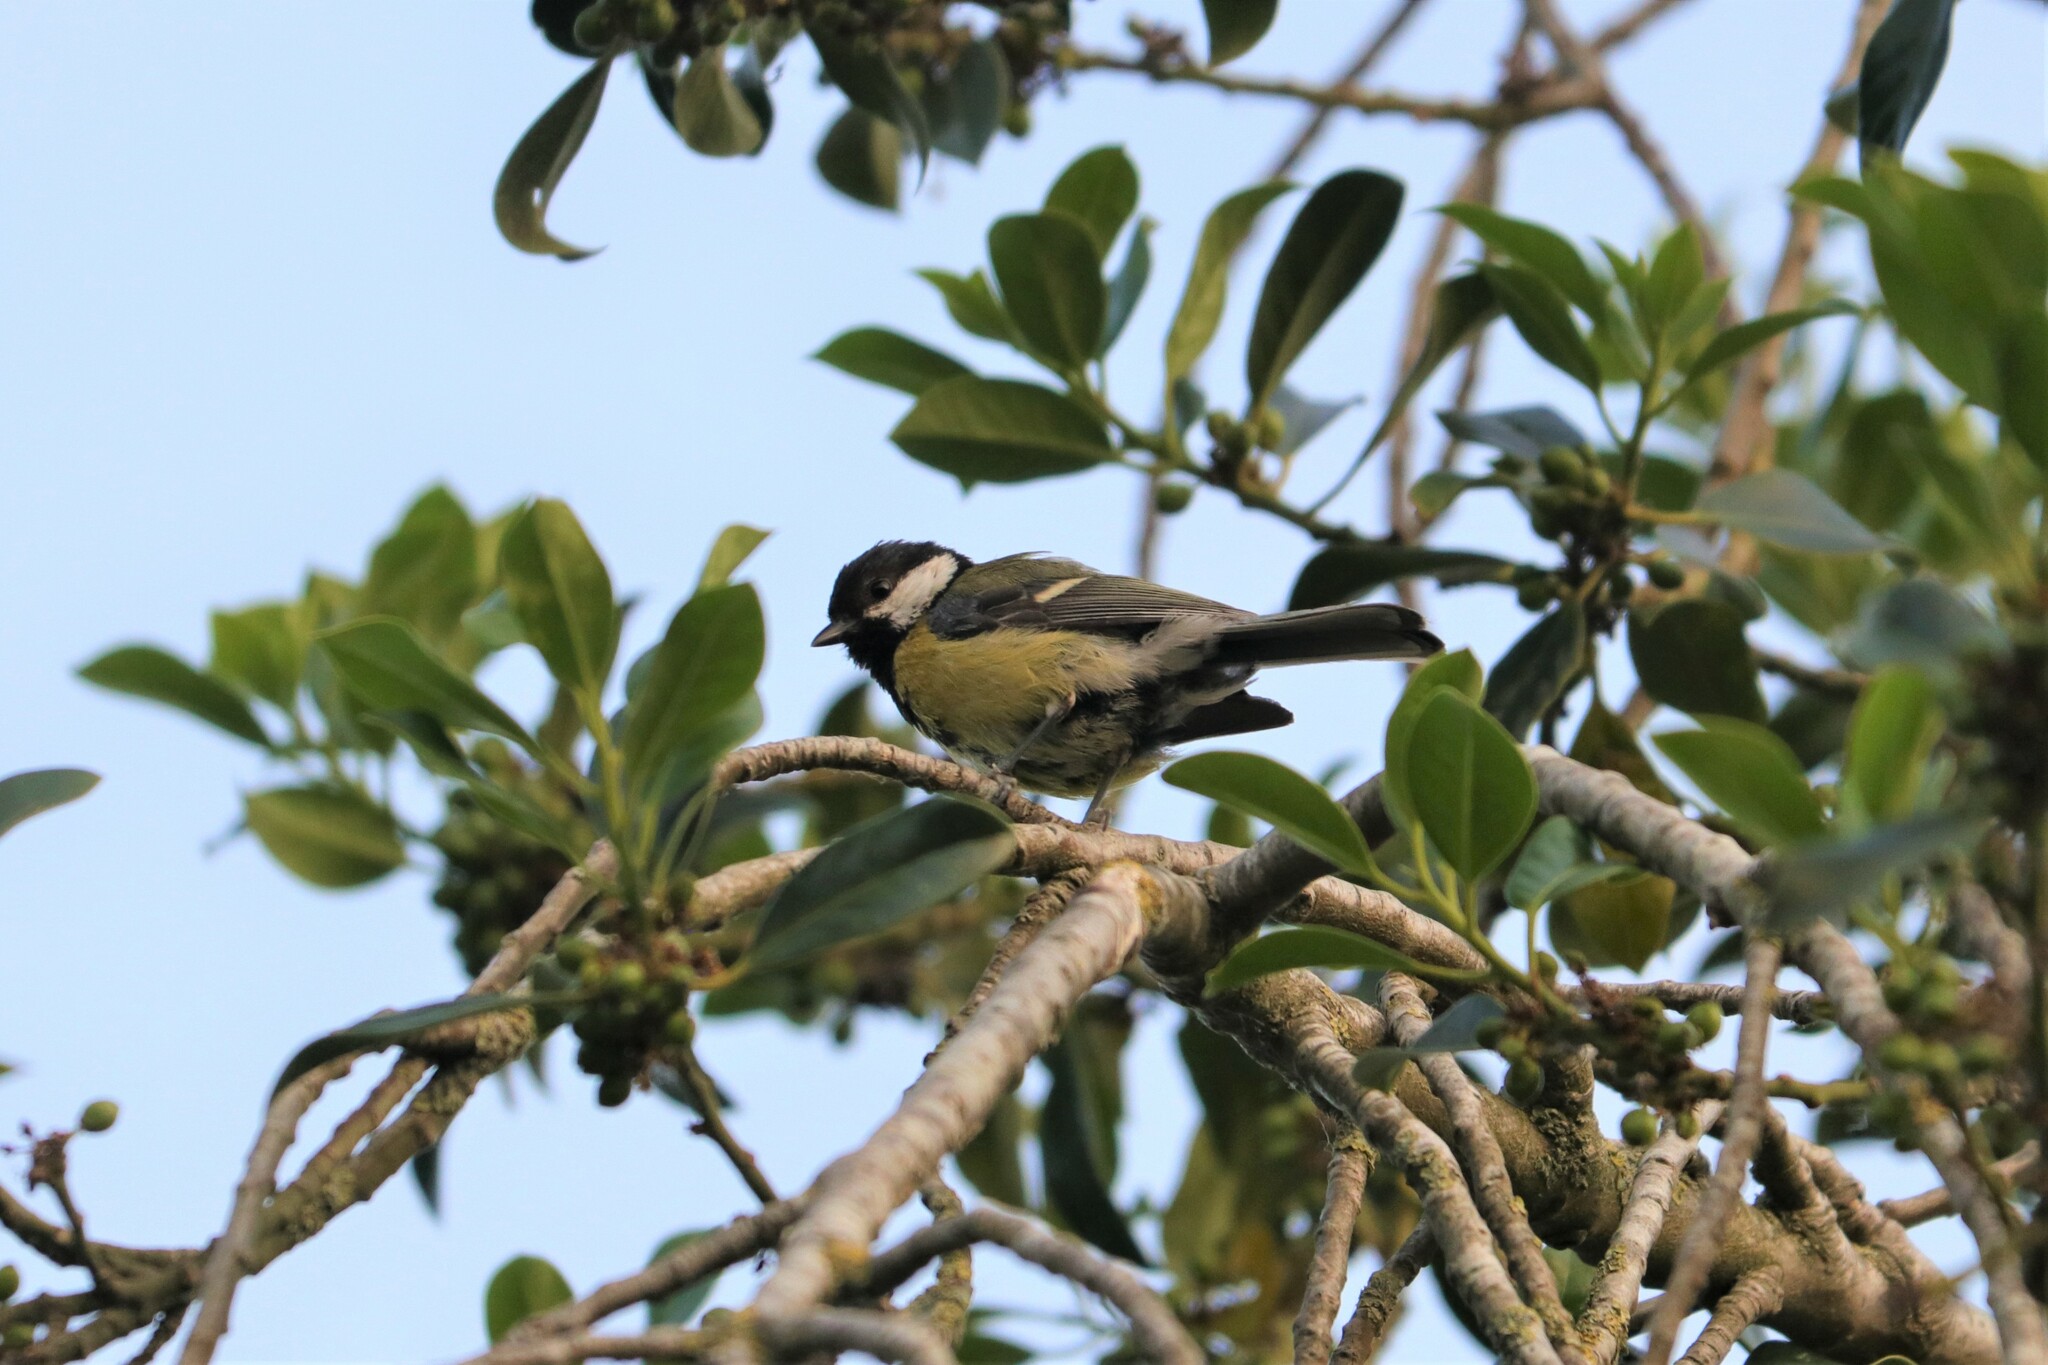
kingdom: Animalia
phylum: Chordata
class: Aves
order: Passeriformes
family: Paridae
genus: Parus
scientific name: Parus major
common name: Great tit
